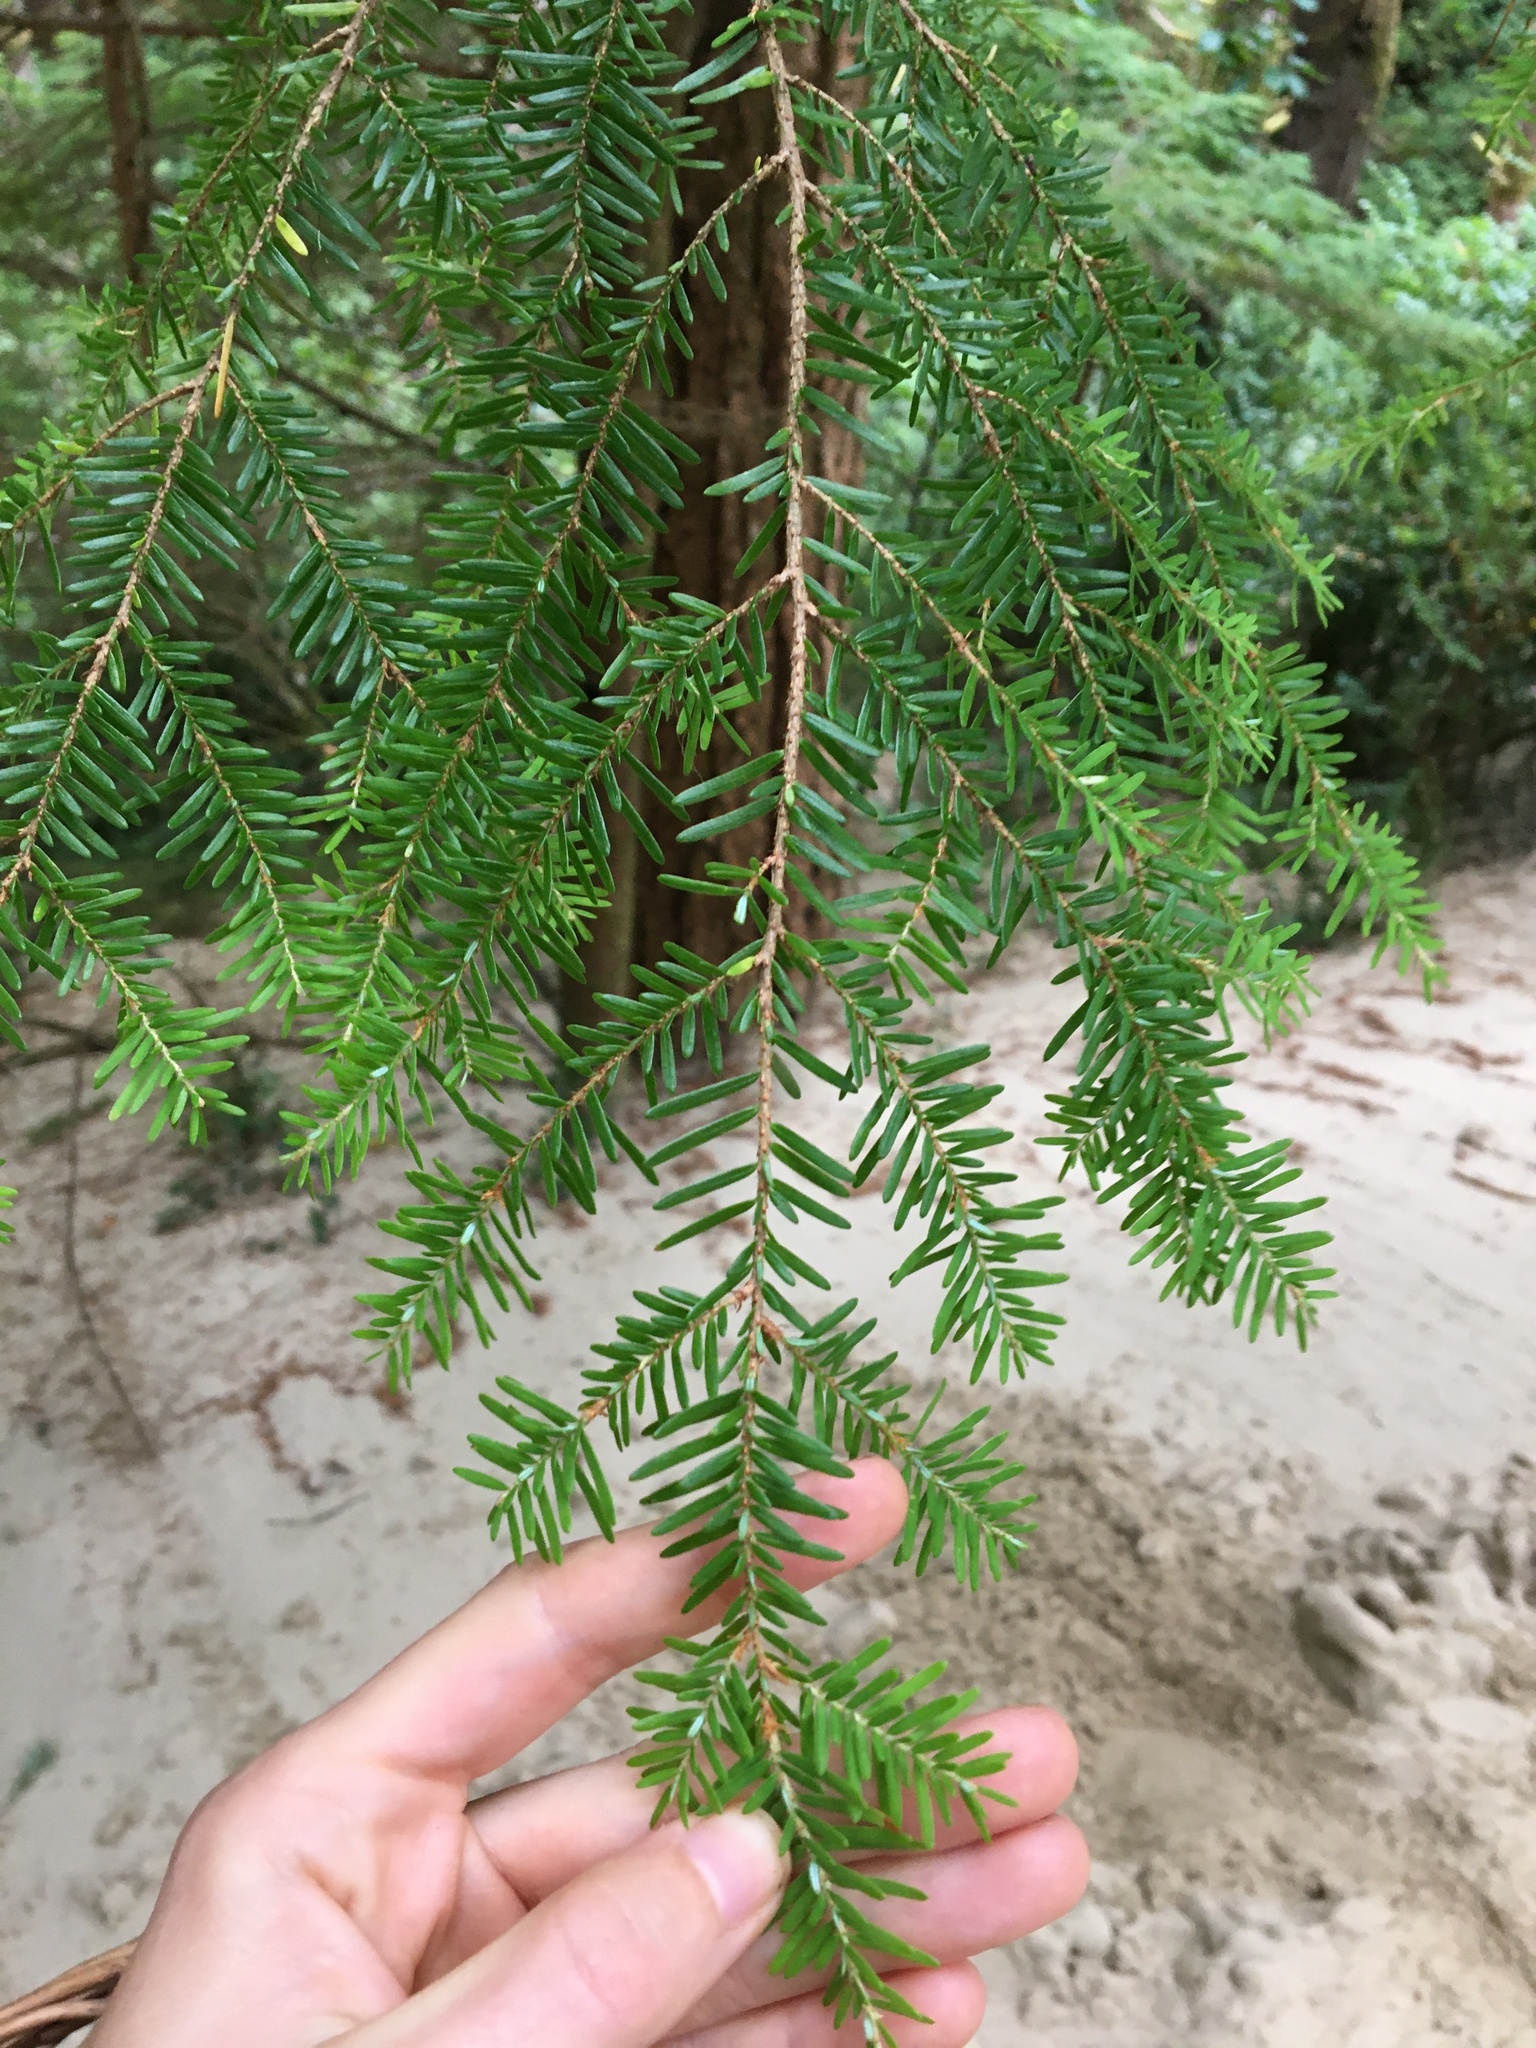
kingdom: Plantae
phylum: Tracheophyta
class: Pinopsida
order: Pinales
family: Pinaceae
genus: Tsuga
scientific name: Tsuga heterophylla
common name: Western hemlock
